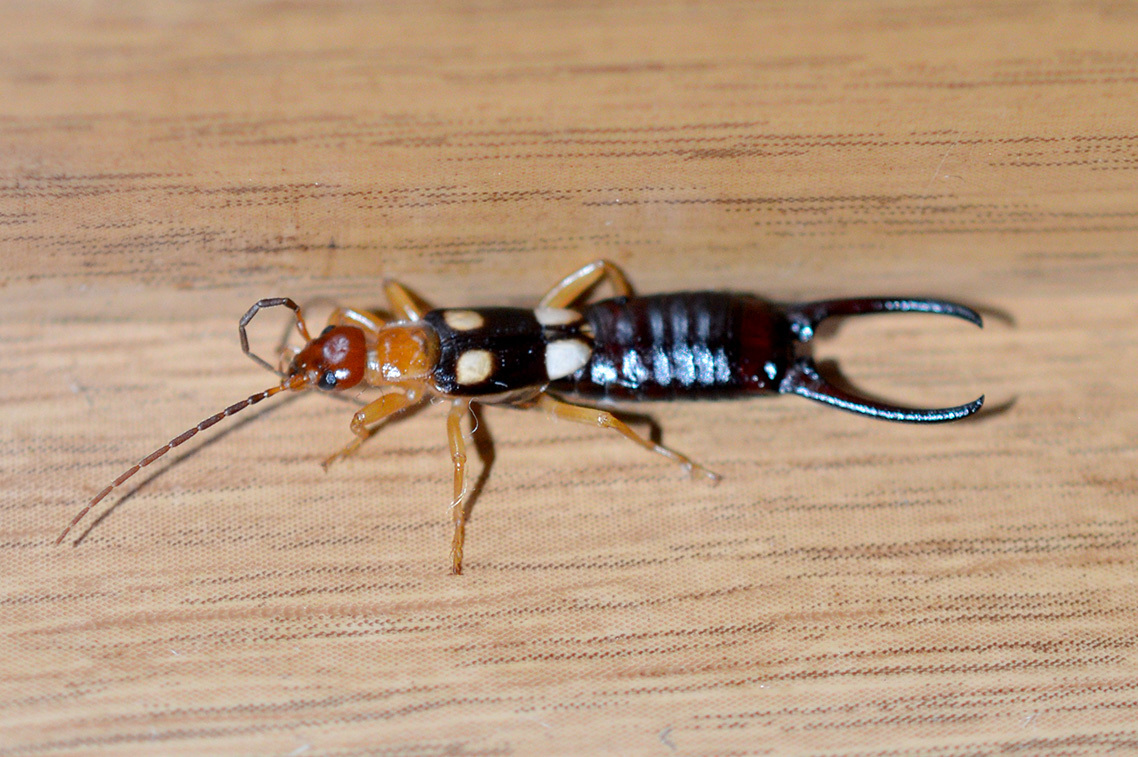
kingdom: Animalia
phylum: Arthropoda
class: Insecta
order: Dermaptera
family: Forficulidae
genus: Forficula
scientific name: Forficula smyrnensis
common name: Smyrna earwig
